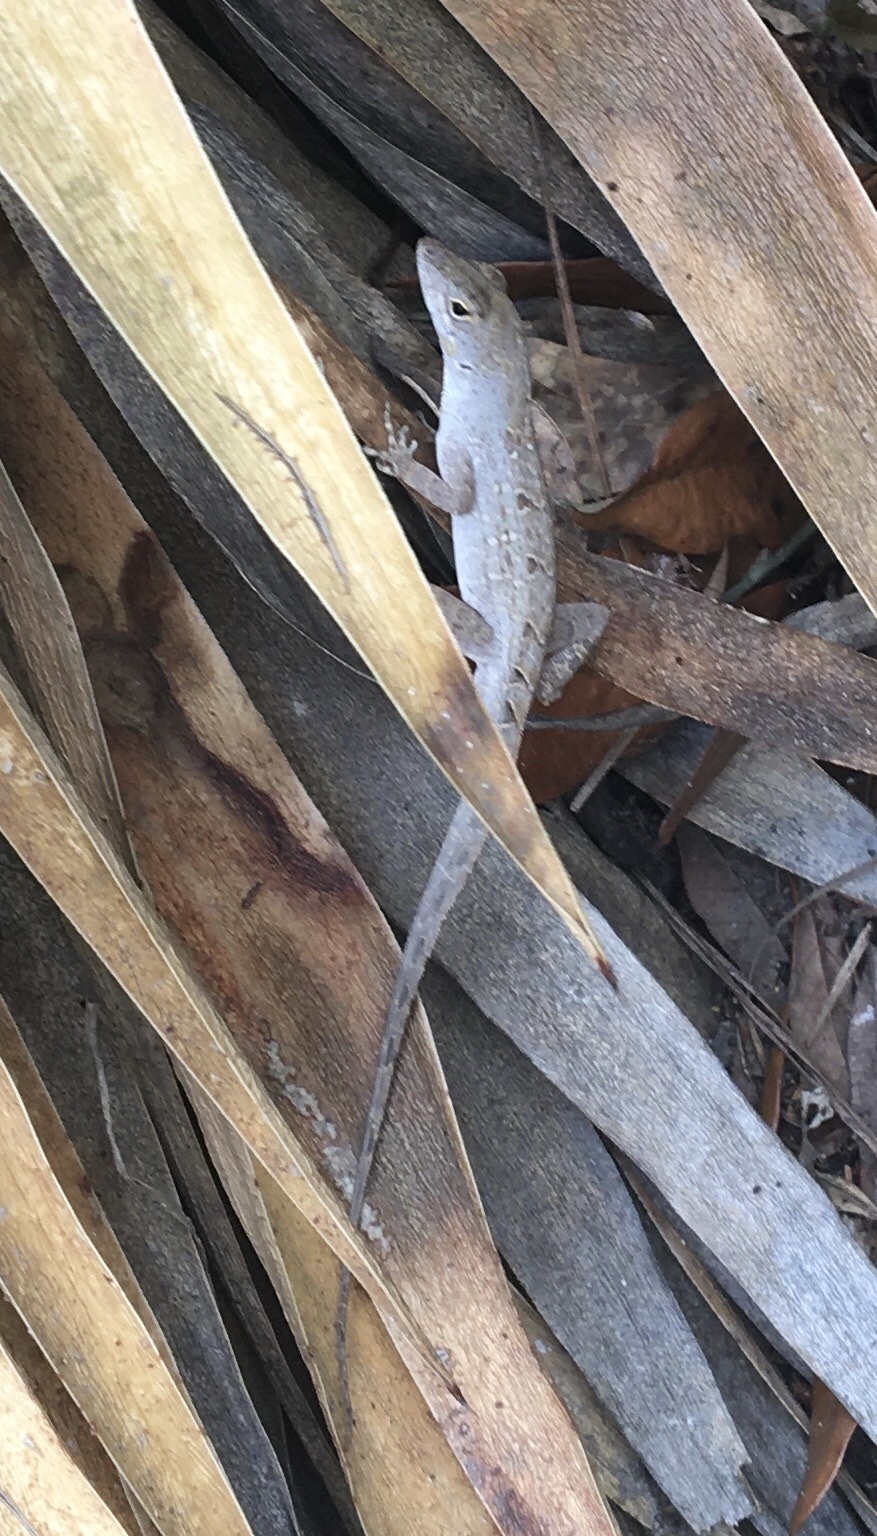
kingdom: Animalia
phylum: Chordata
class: Squamata
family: Dactyloidae
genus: Anolis
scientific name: Anolis sagrei
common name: Brown anole
